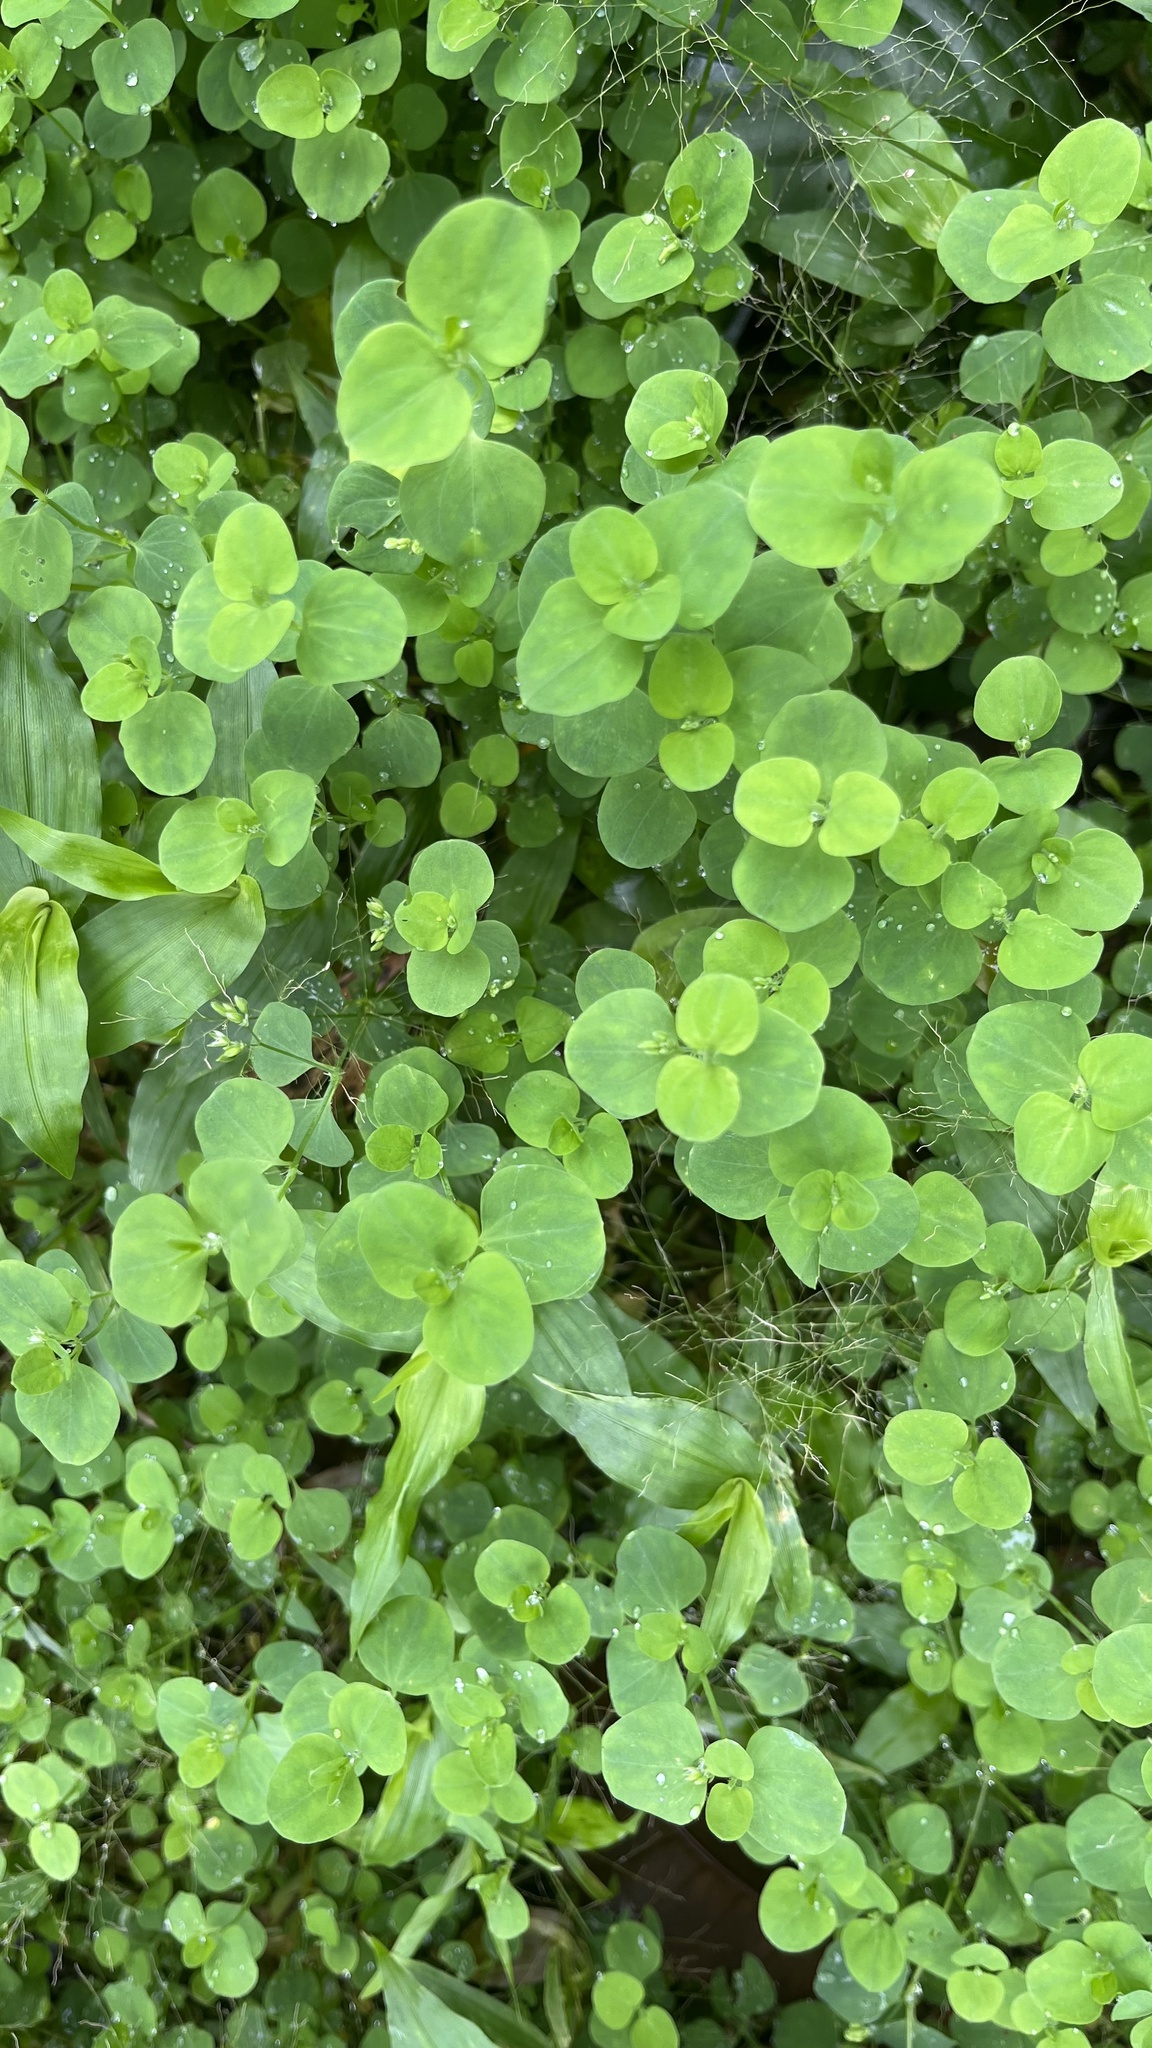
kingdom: Plantae
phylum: Tracheophyta
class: Magnoliopsida
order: Caryophyllales
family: Caryophyllaceae
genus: Drymaria
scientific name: Drymaria cordata
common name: Whitesnow
